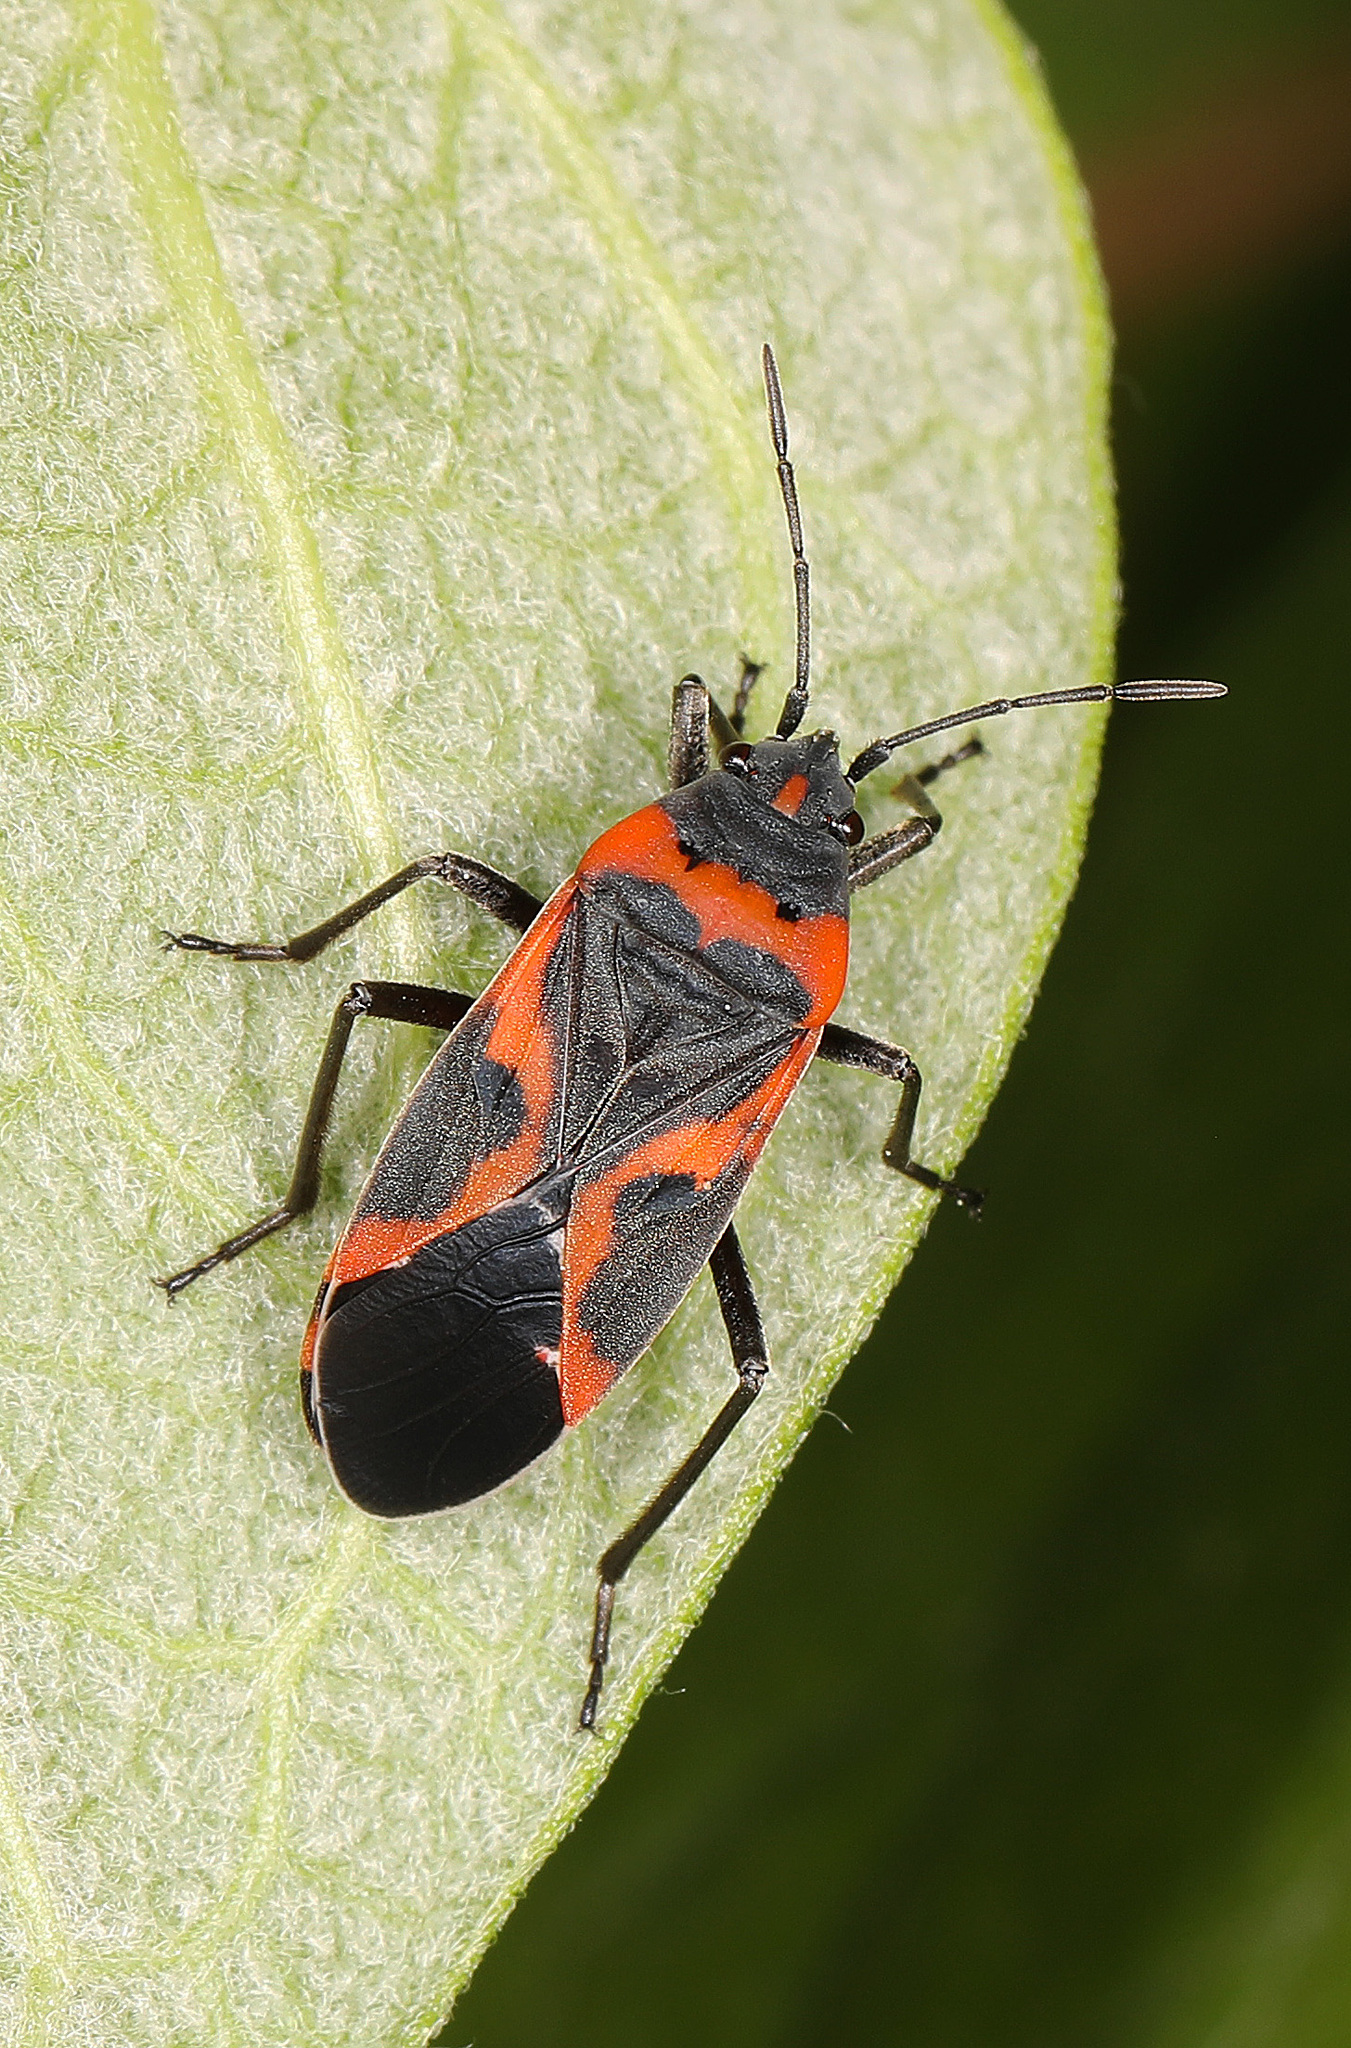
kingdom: Animalia
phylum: Arthropoda
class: Insecta
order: Hemiptera
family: Lygaeidae
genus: Lygaeus
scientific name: Lygaeus kalmii
